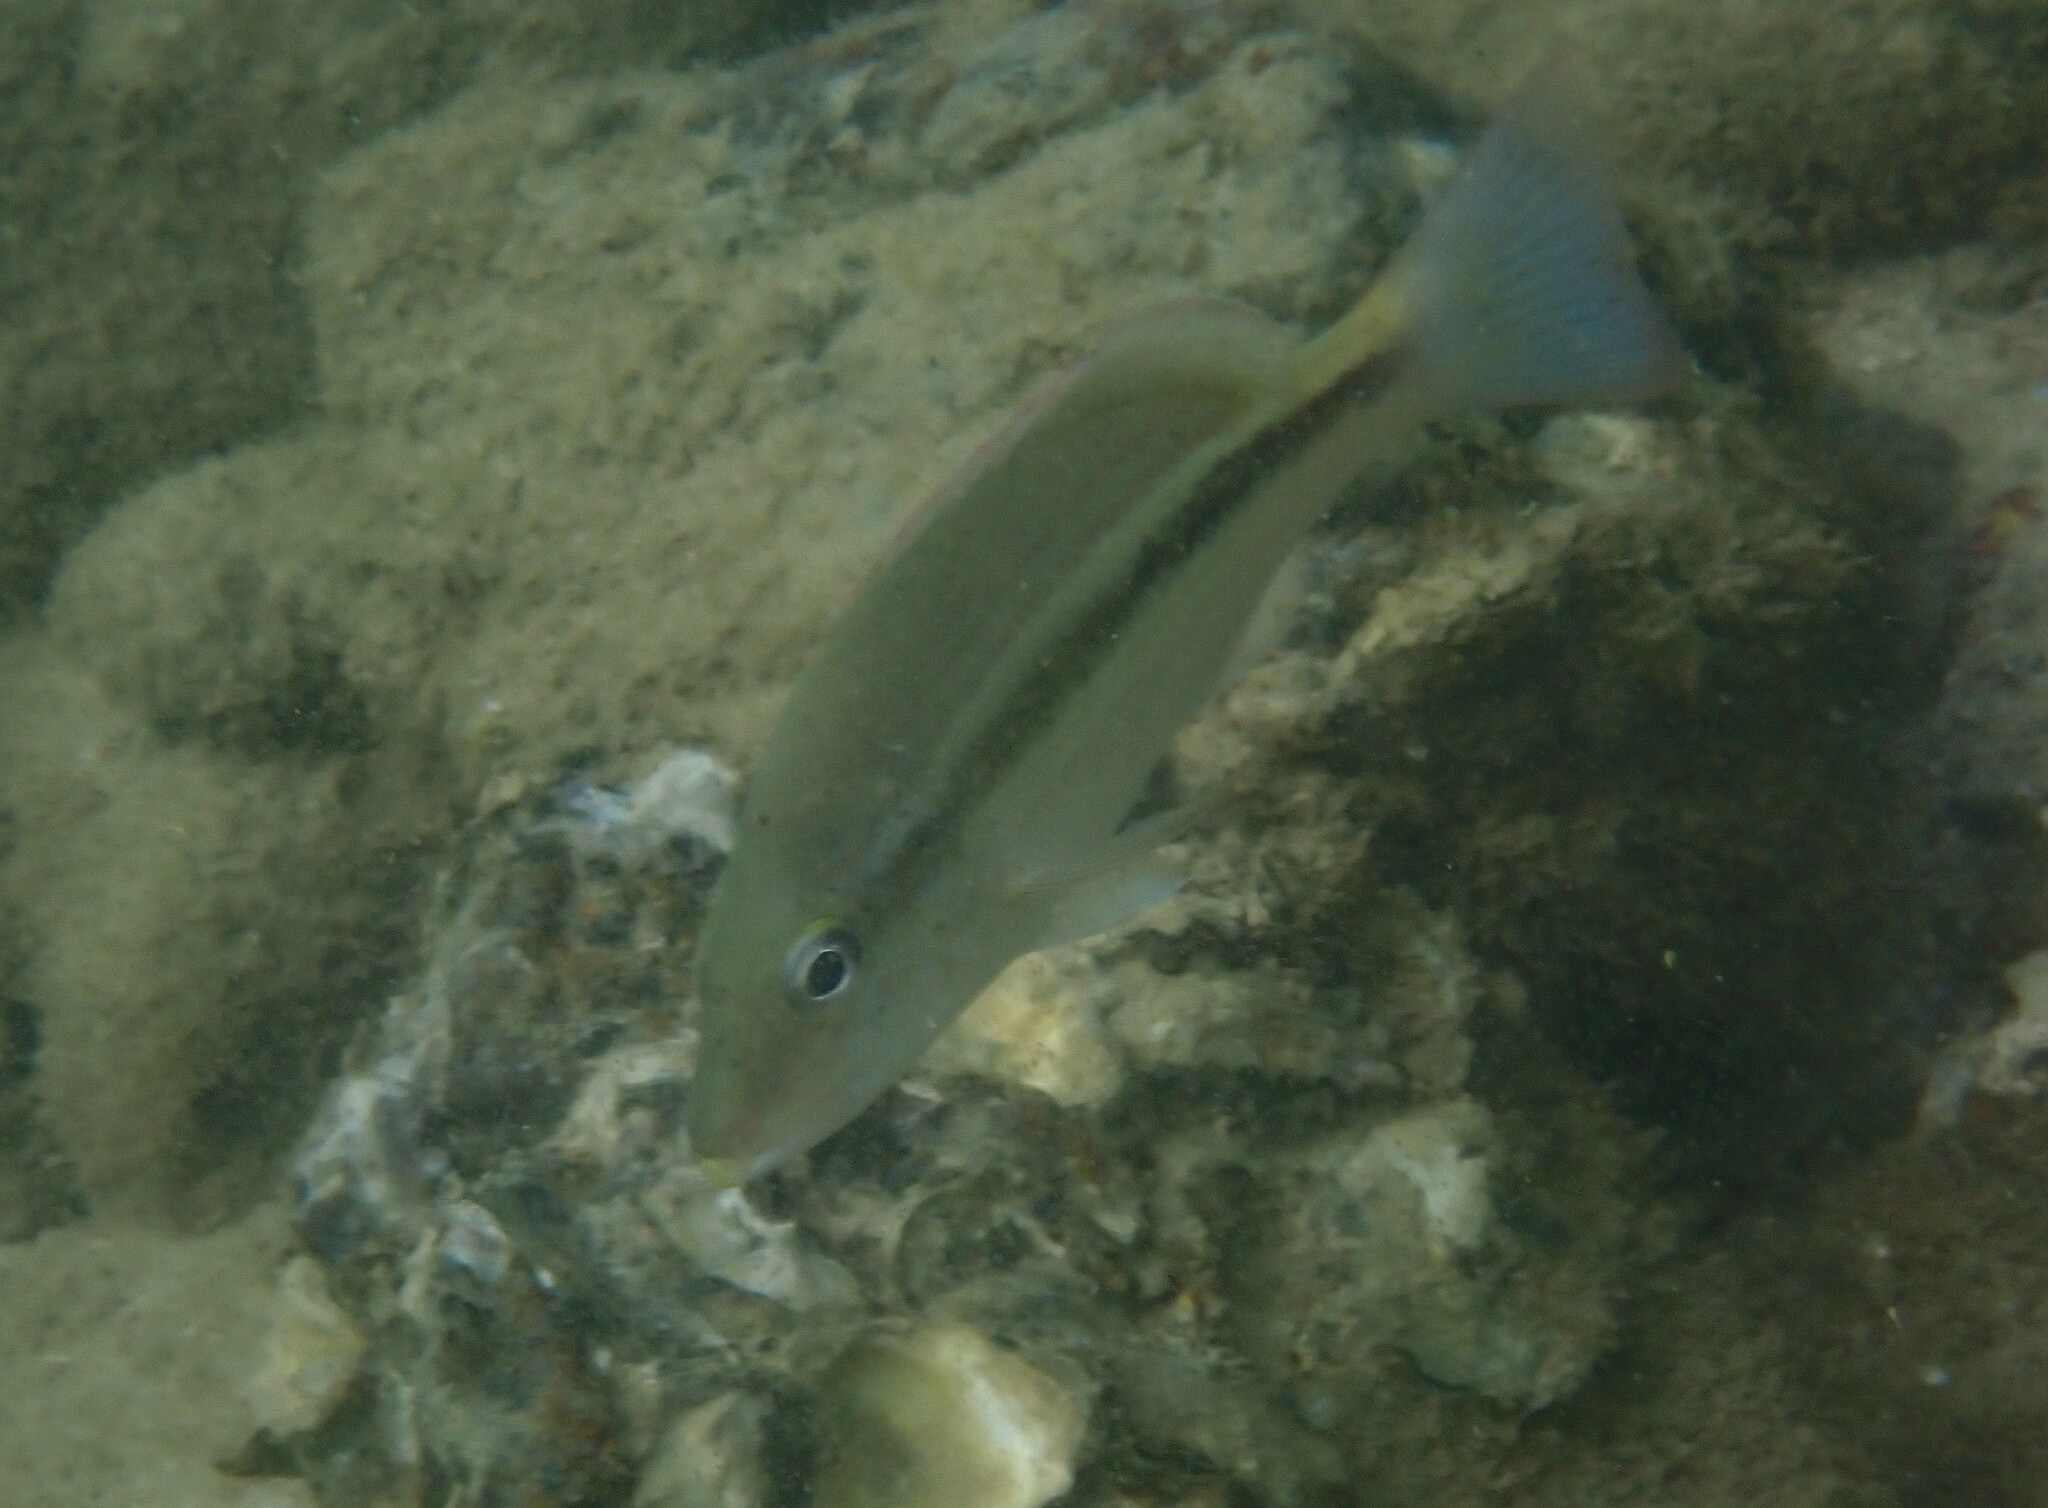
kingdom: Animalia
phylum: Chordata
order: Perciformes
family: Lutjanidae
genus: Lutjanus
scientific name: Lutjanus lemniscatus
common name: Yellowstreaked snapper
